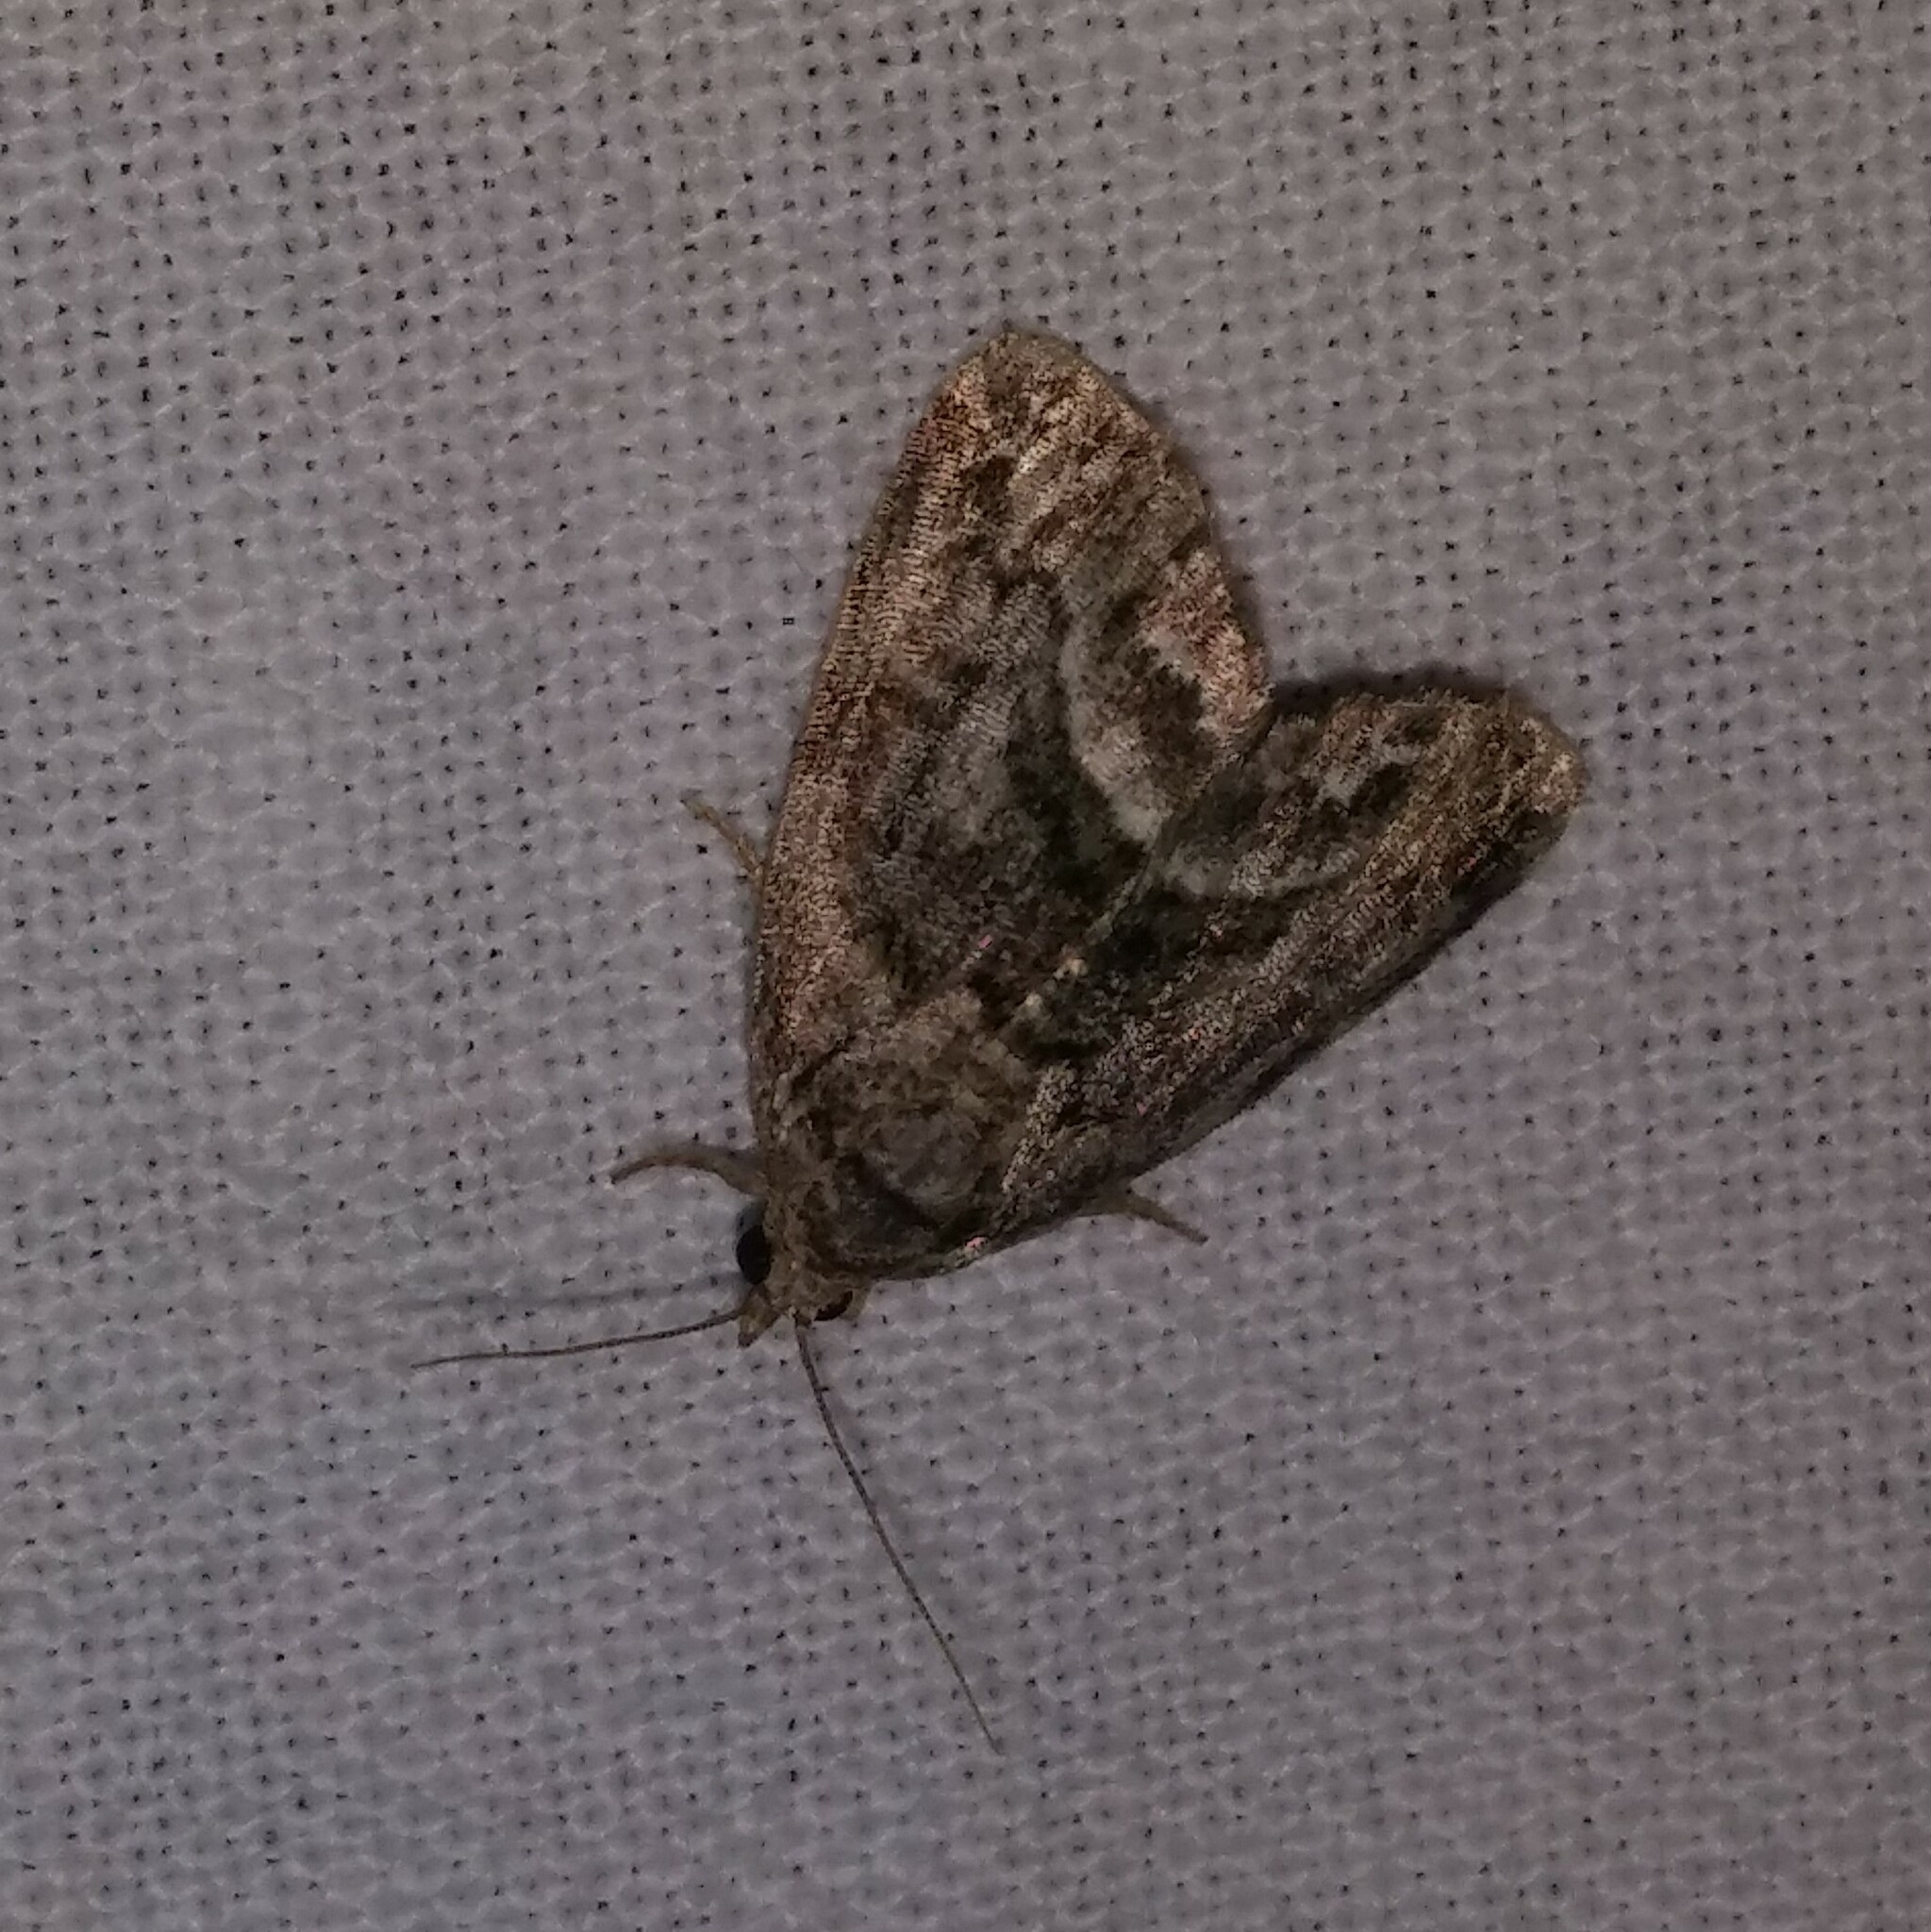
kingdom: Animalia
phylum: Arthropoda
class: Insecta
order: Lepidoptera
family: Noctuidae
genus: Protodeltote
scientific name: Protodeltote muscosula
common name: Large mossy glyph
